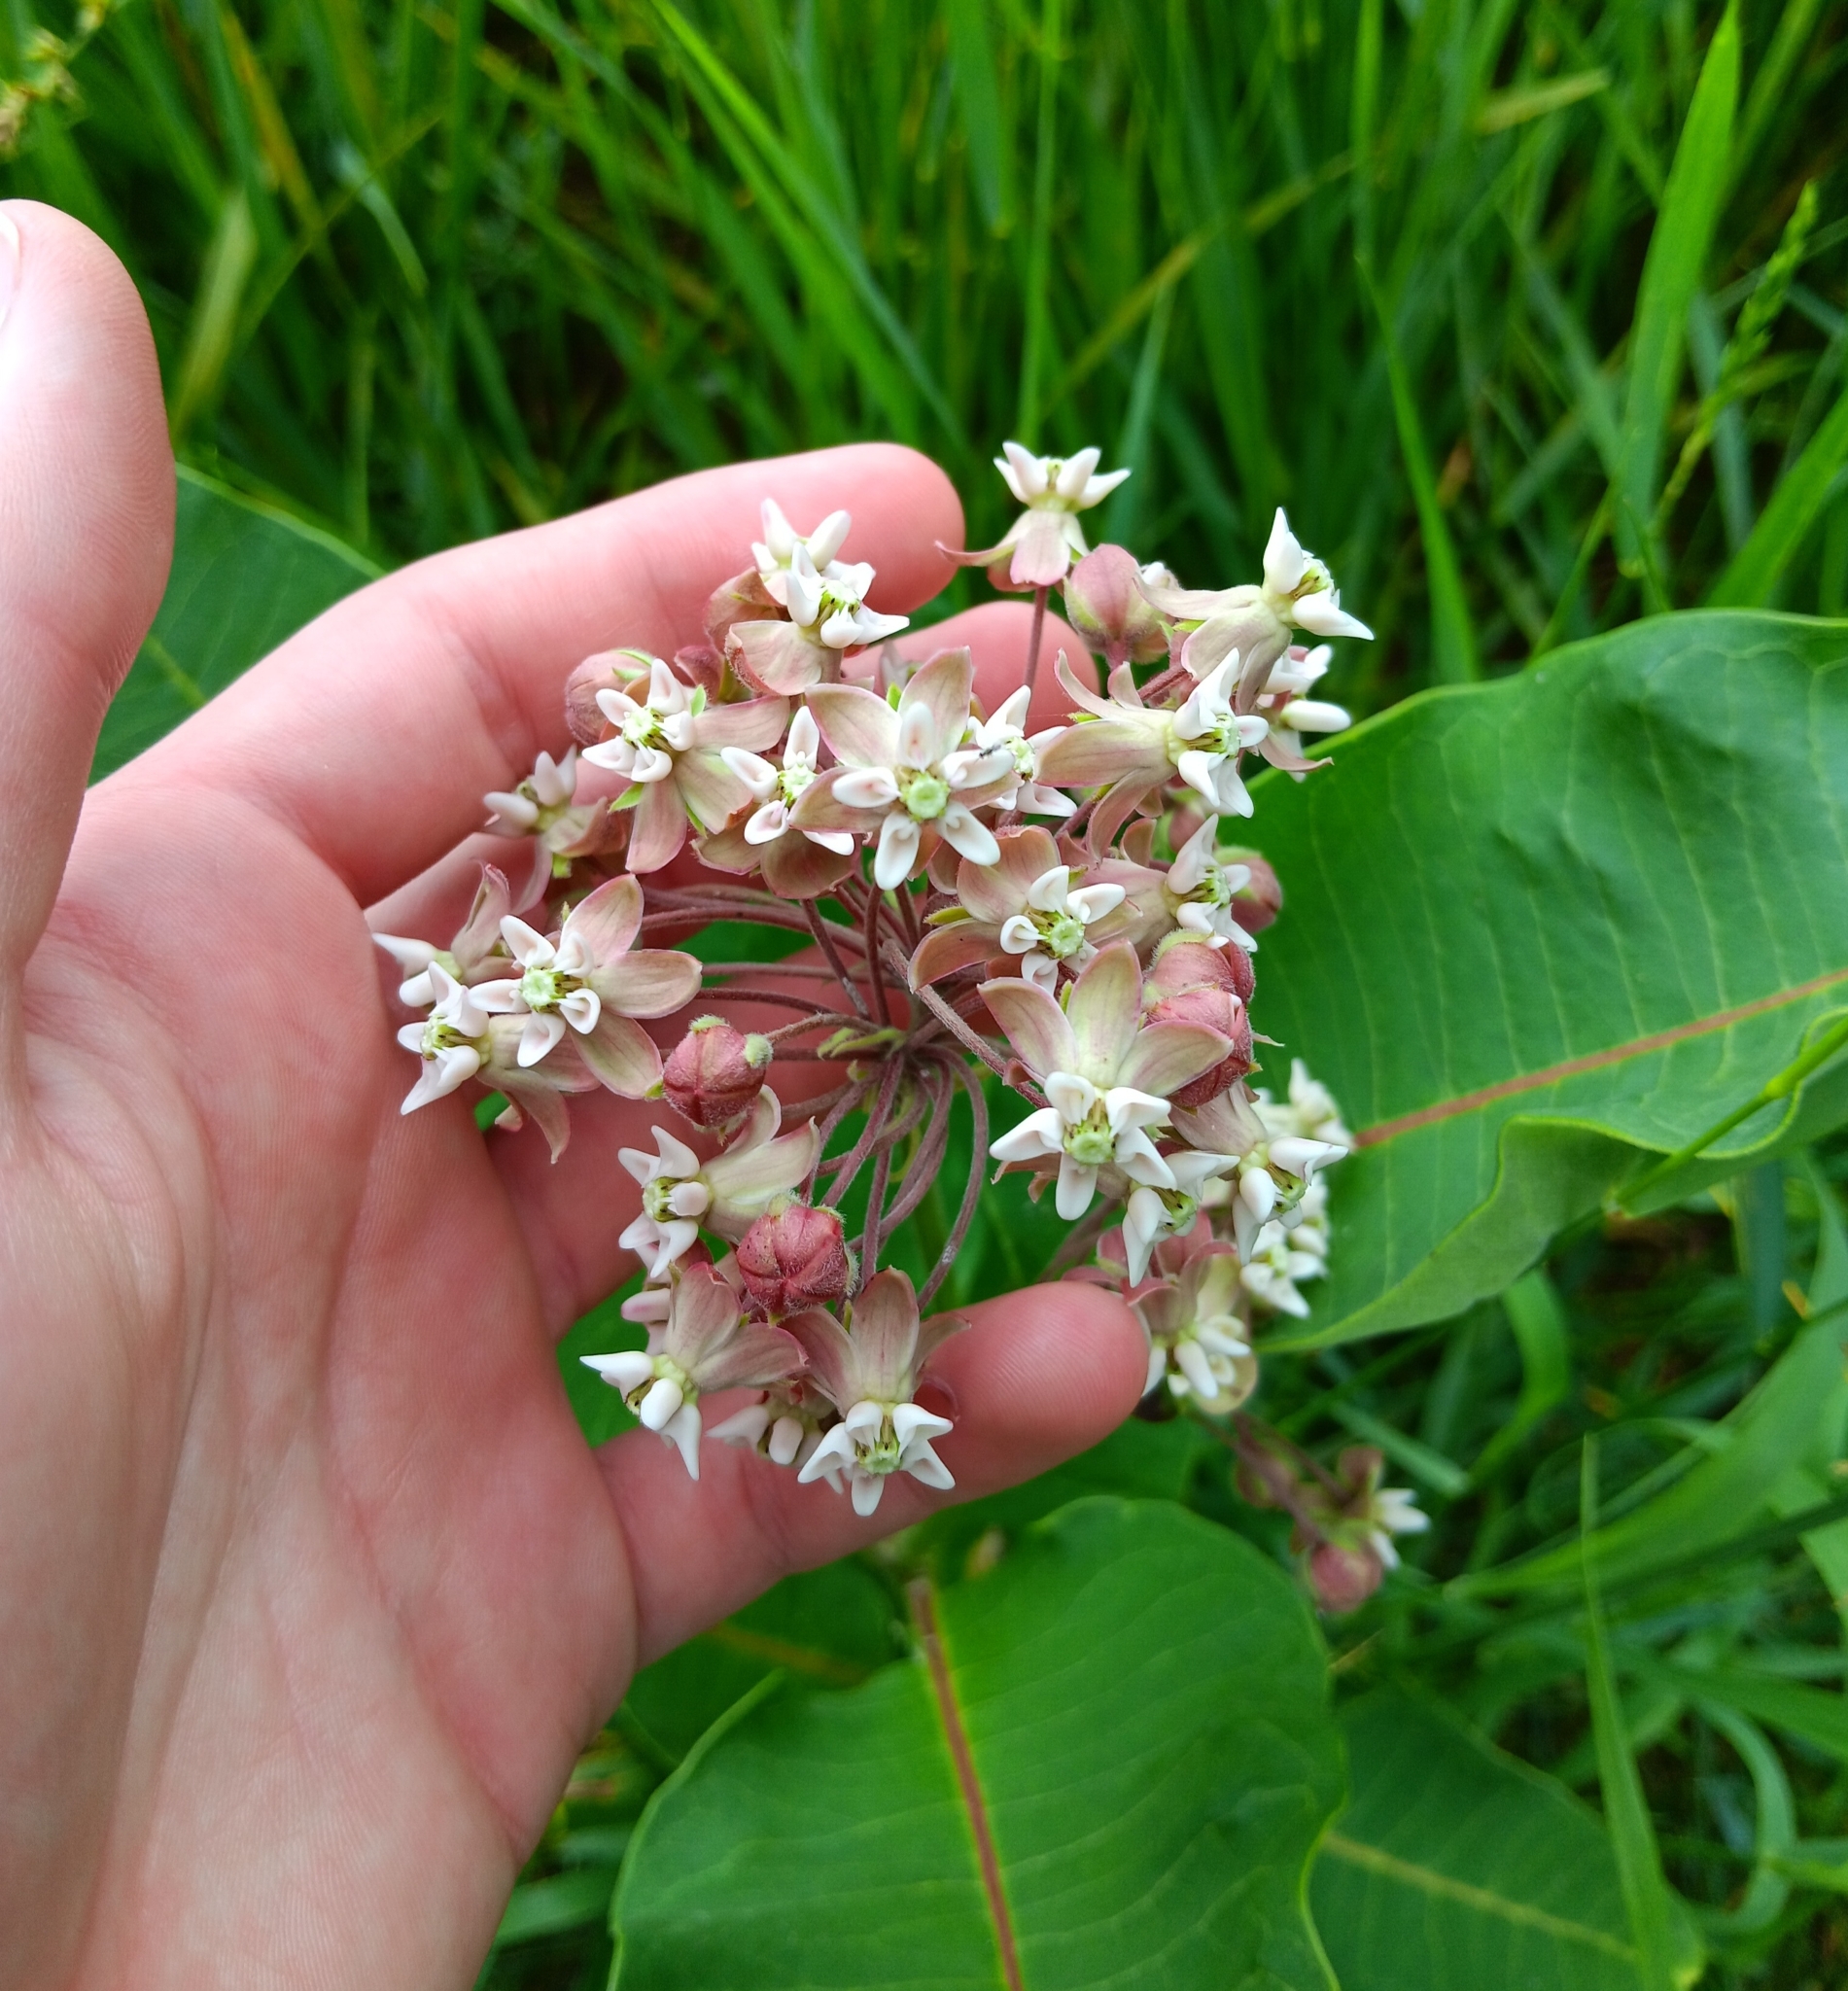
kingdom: Plantae
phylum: Tracheophyta
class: Magnoliopsida
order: Gentianales
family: Apocynaceae
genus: Asclepias
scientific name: Asclepias syriaca
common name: Common milkweed
